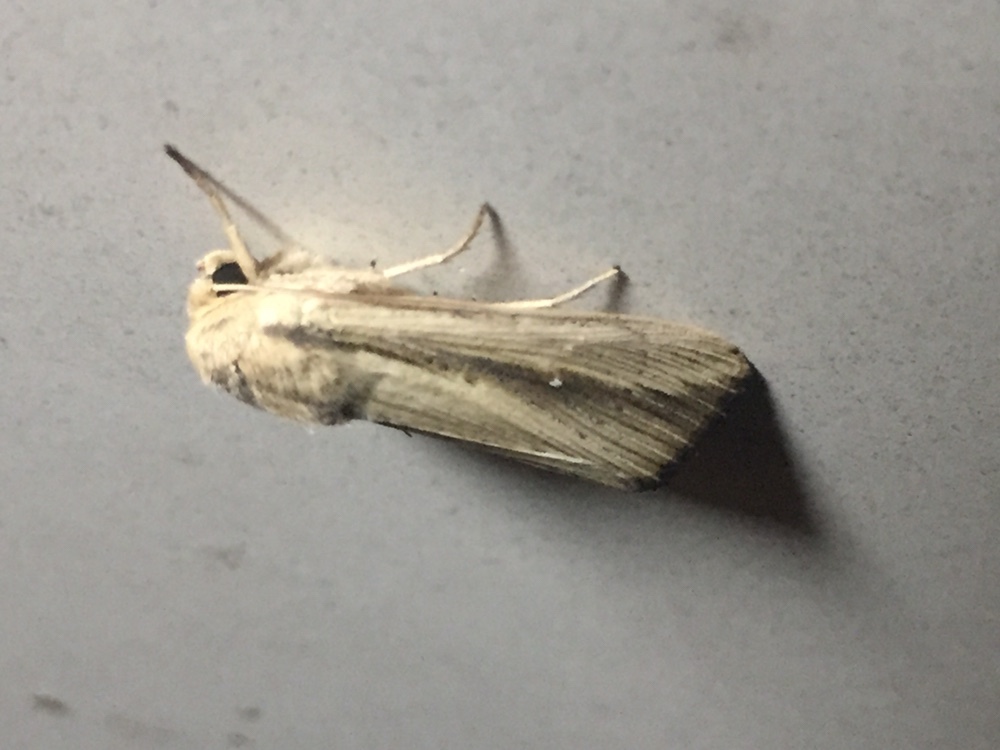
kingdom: Animalia
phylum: Arthropoda
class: Insecta
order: Lepidoptera
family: Noctuidae
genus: Leucania
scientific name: Leucania stenographa
